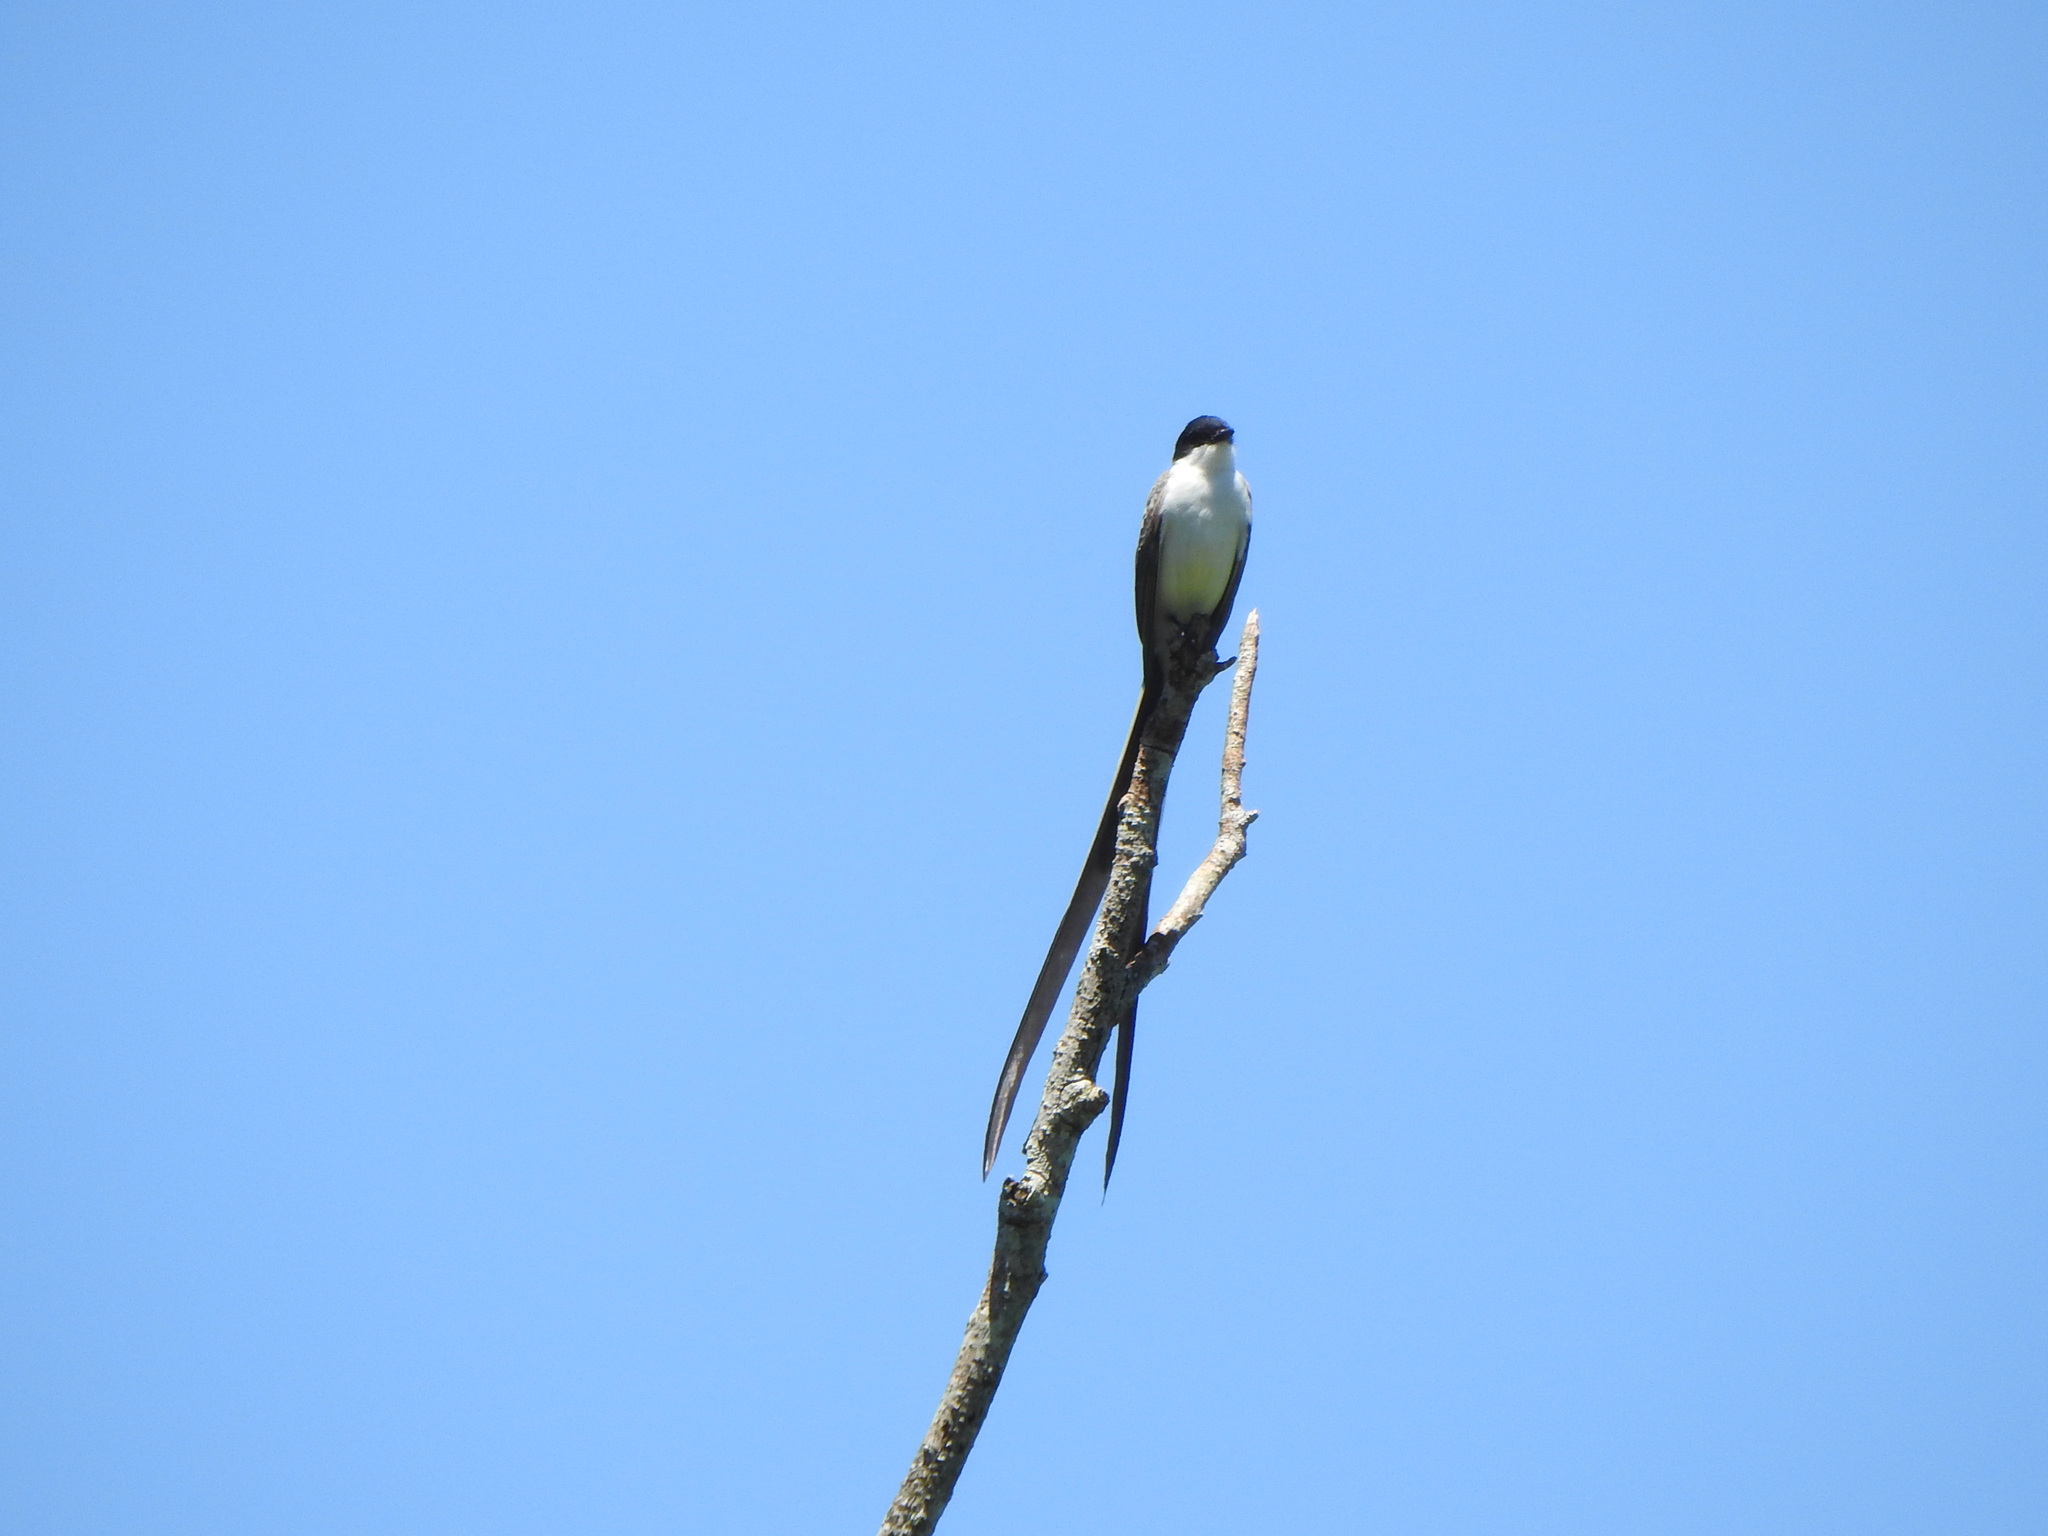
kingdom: Animalia
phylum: Chordata
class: Aves
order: Passeriformes
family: Tyrannidae
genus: Tyrannus
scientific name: Tyrannus savana
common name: Fork-tailed flycatcher
